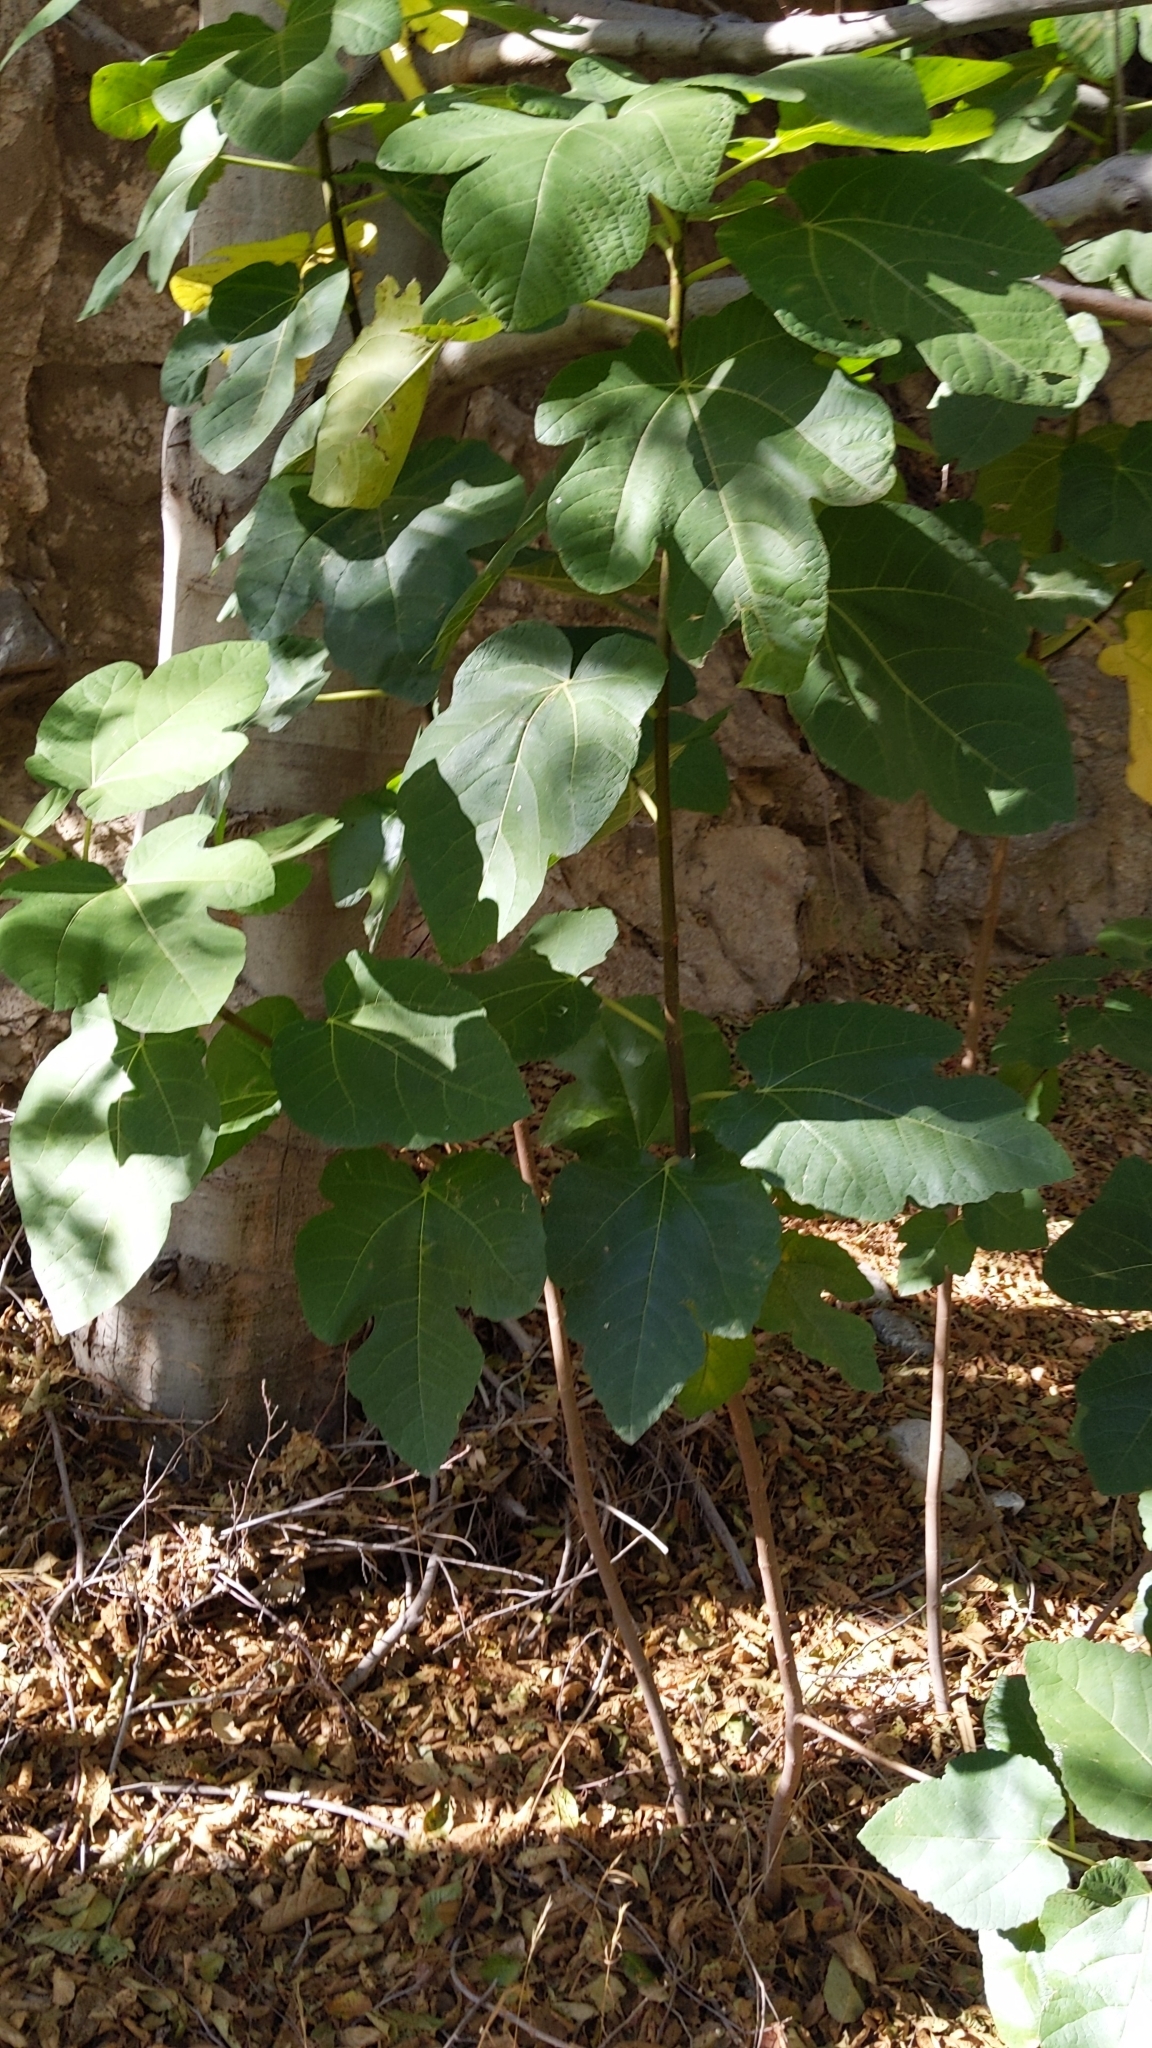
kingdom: Plantae
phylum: Tracheophyta
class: Magnoliopsida
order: Rosales
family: Moraceae
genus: Ficus
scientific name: Ficus carica
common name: Fig
